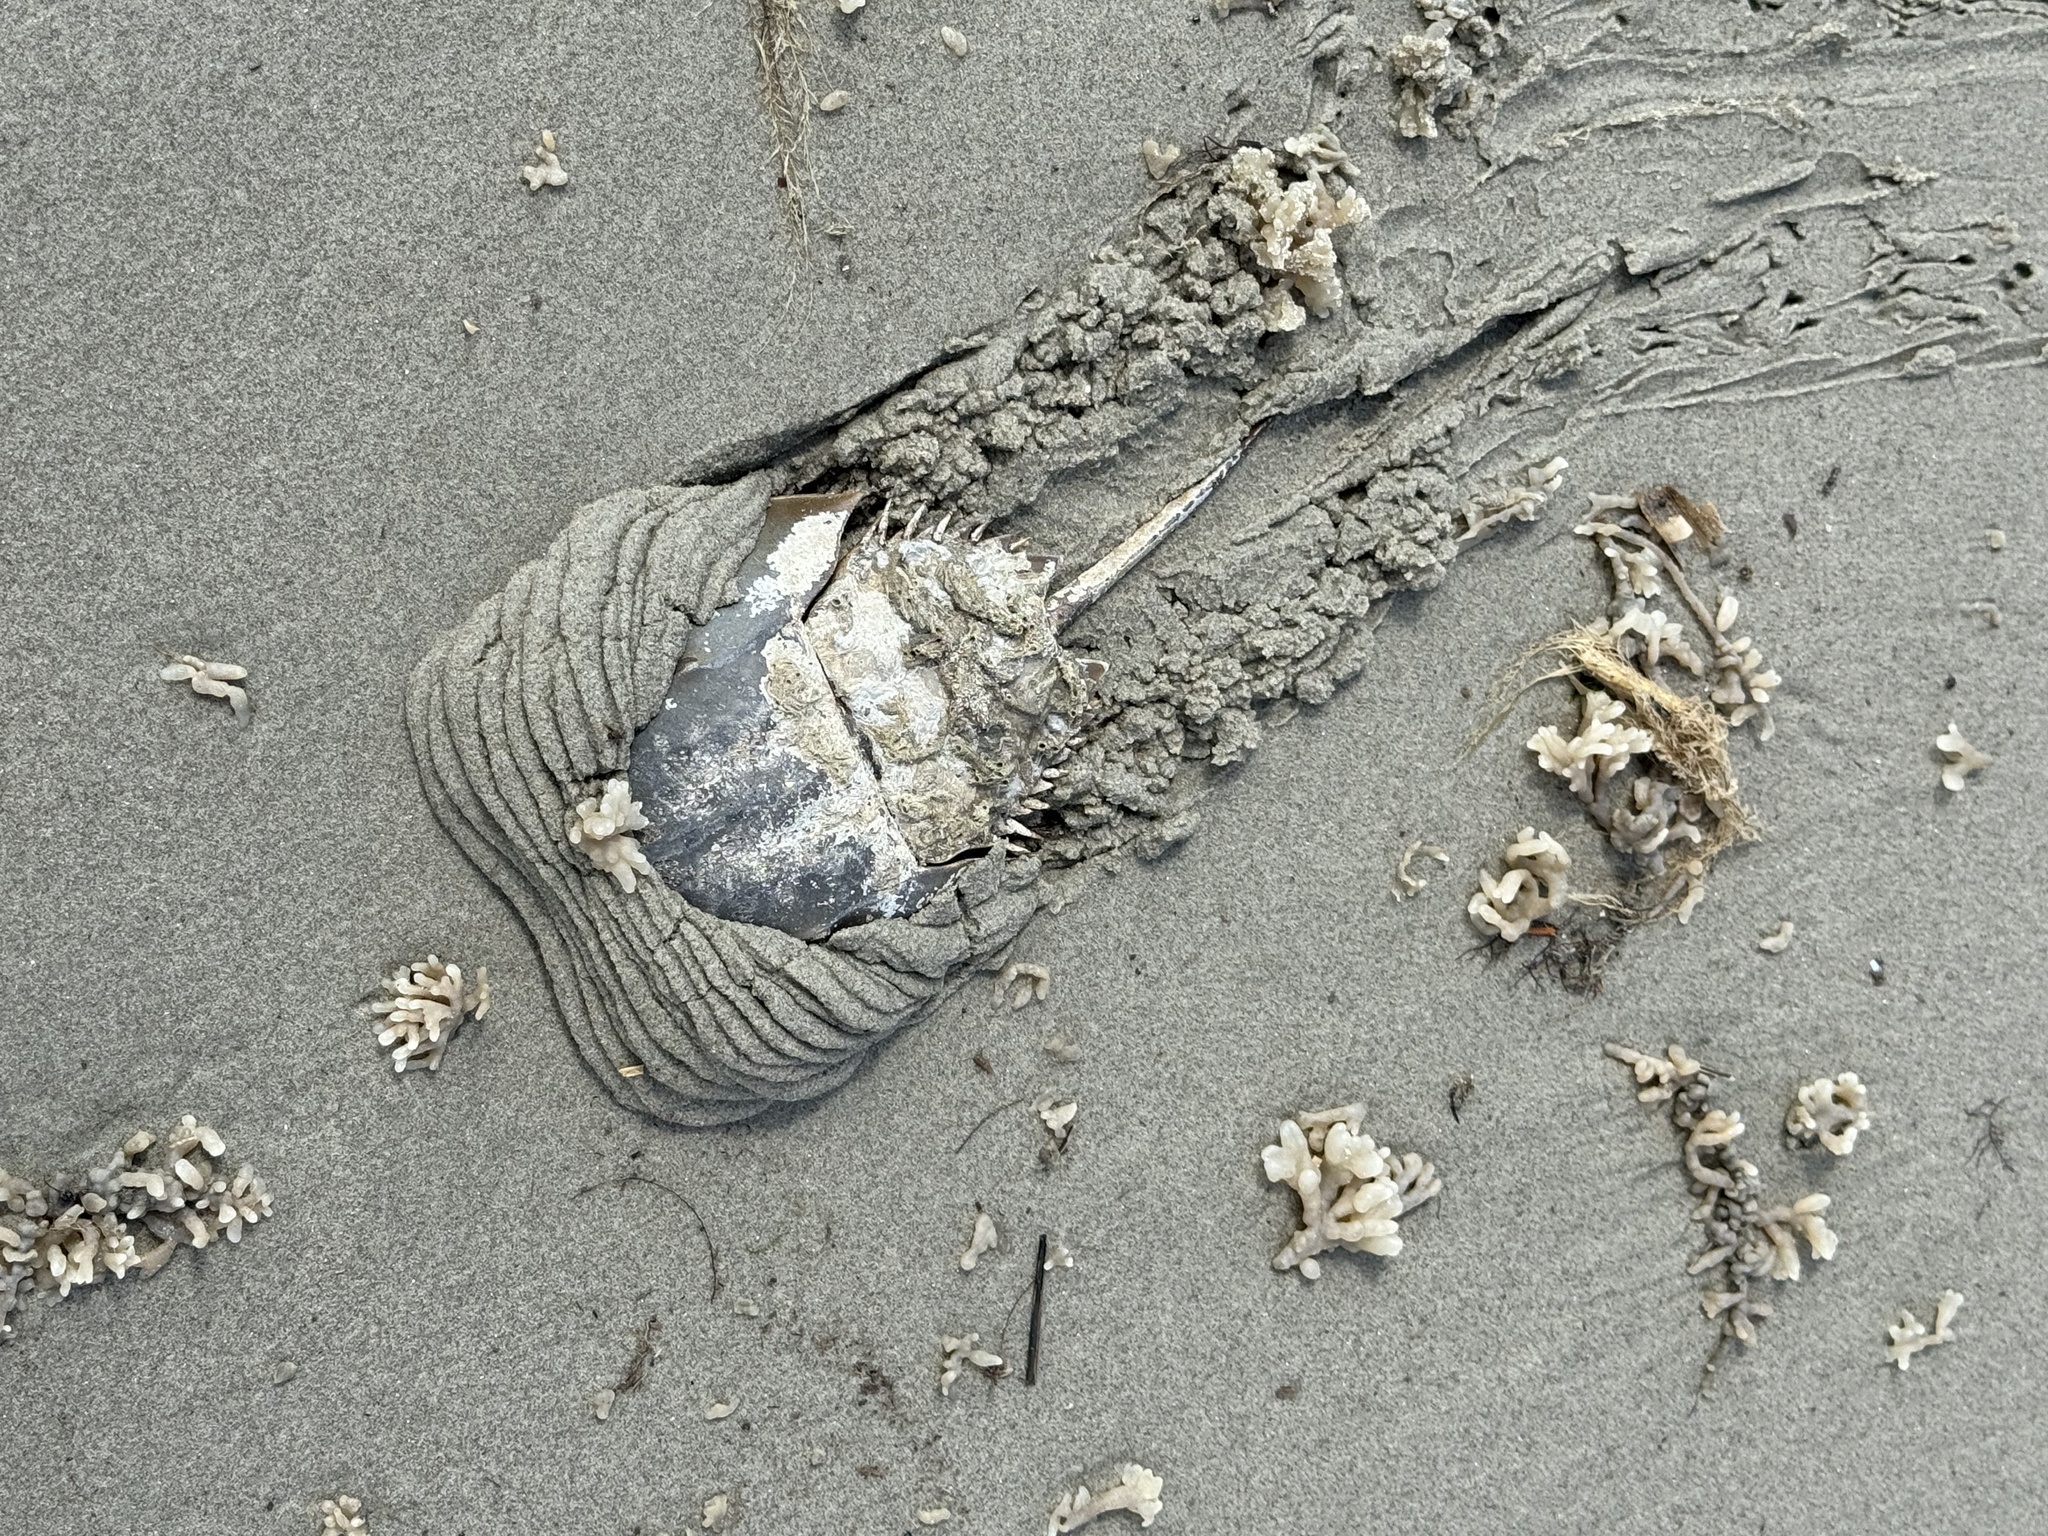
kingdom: Animalia
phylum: Arthropoda
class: Merostomata
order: Xiphosurida
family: Limulidae
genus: Limulus
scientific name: Limulus polyphemus
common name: Horseshoe crab
